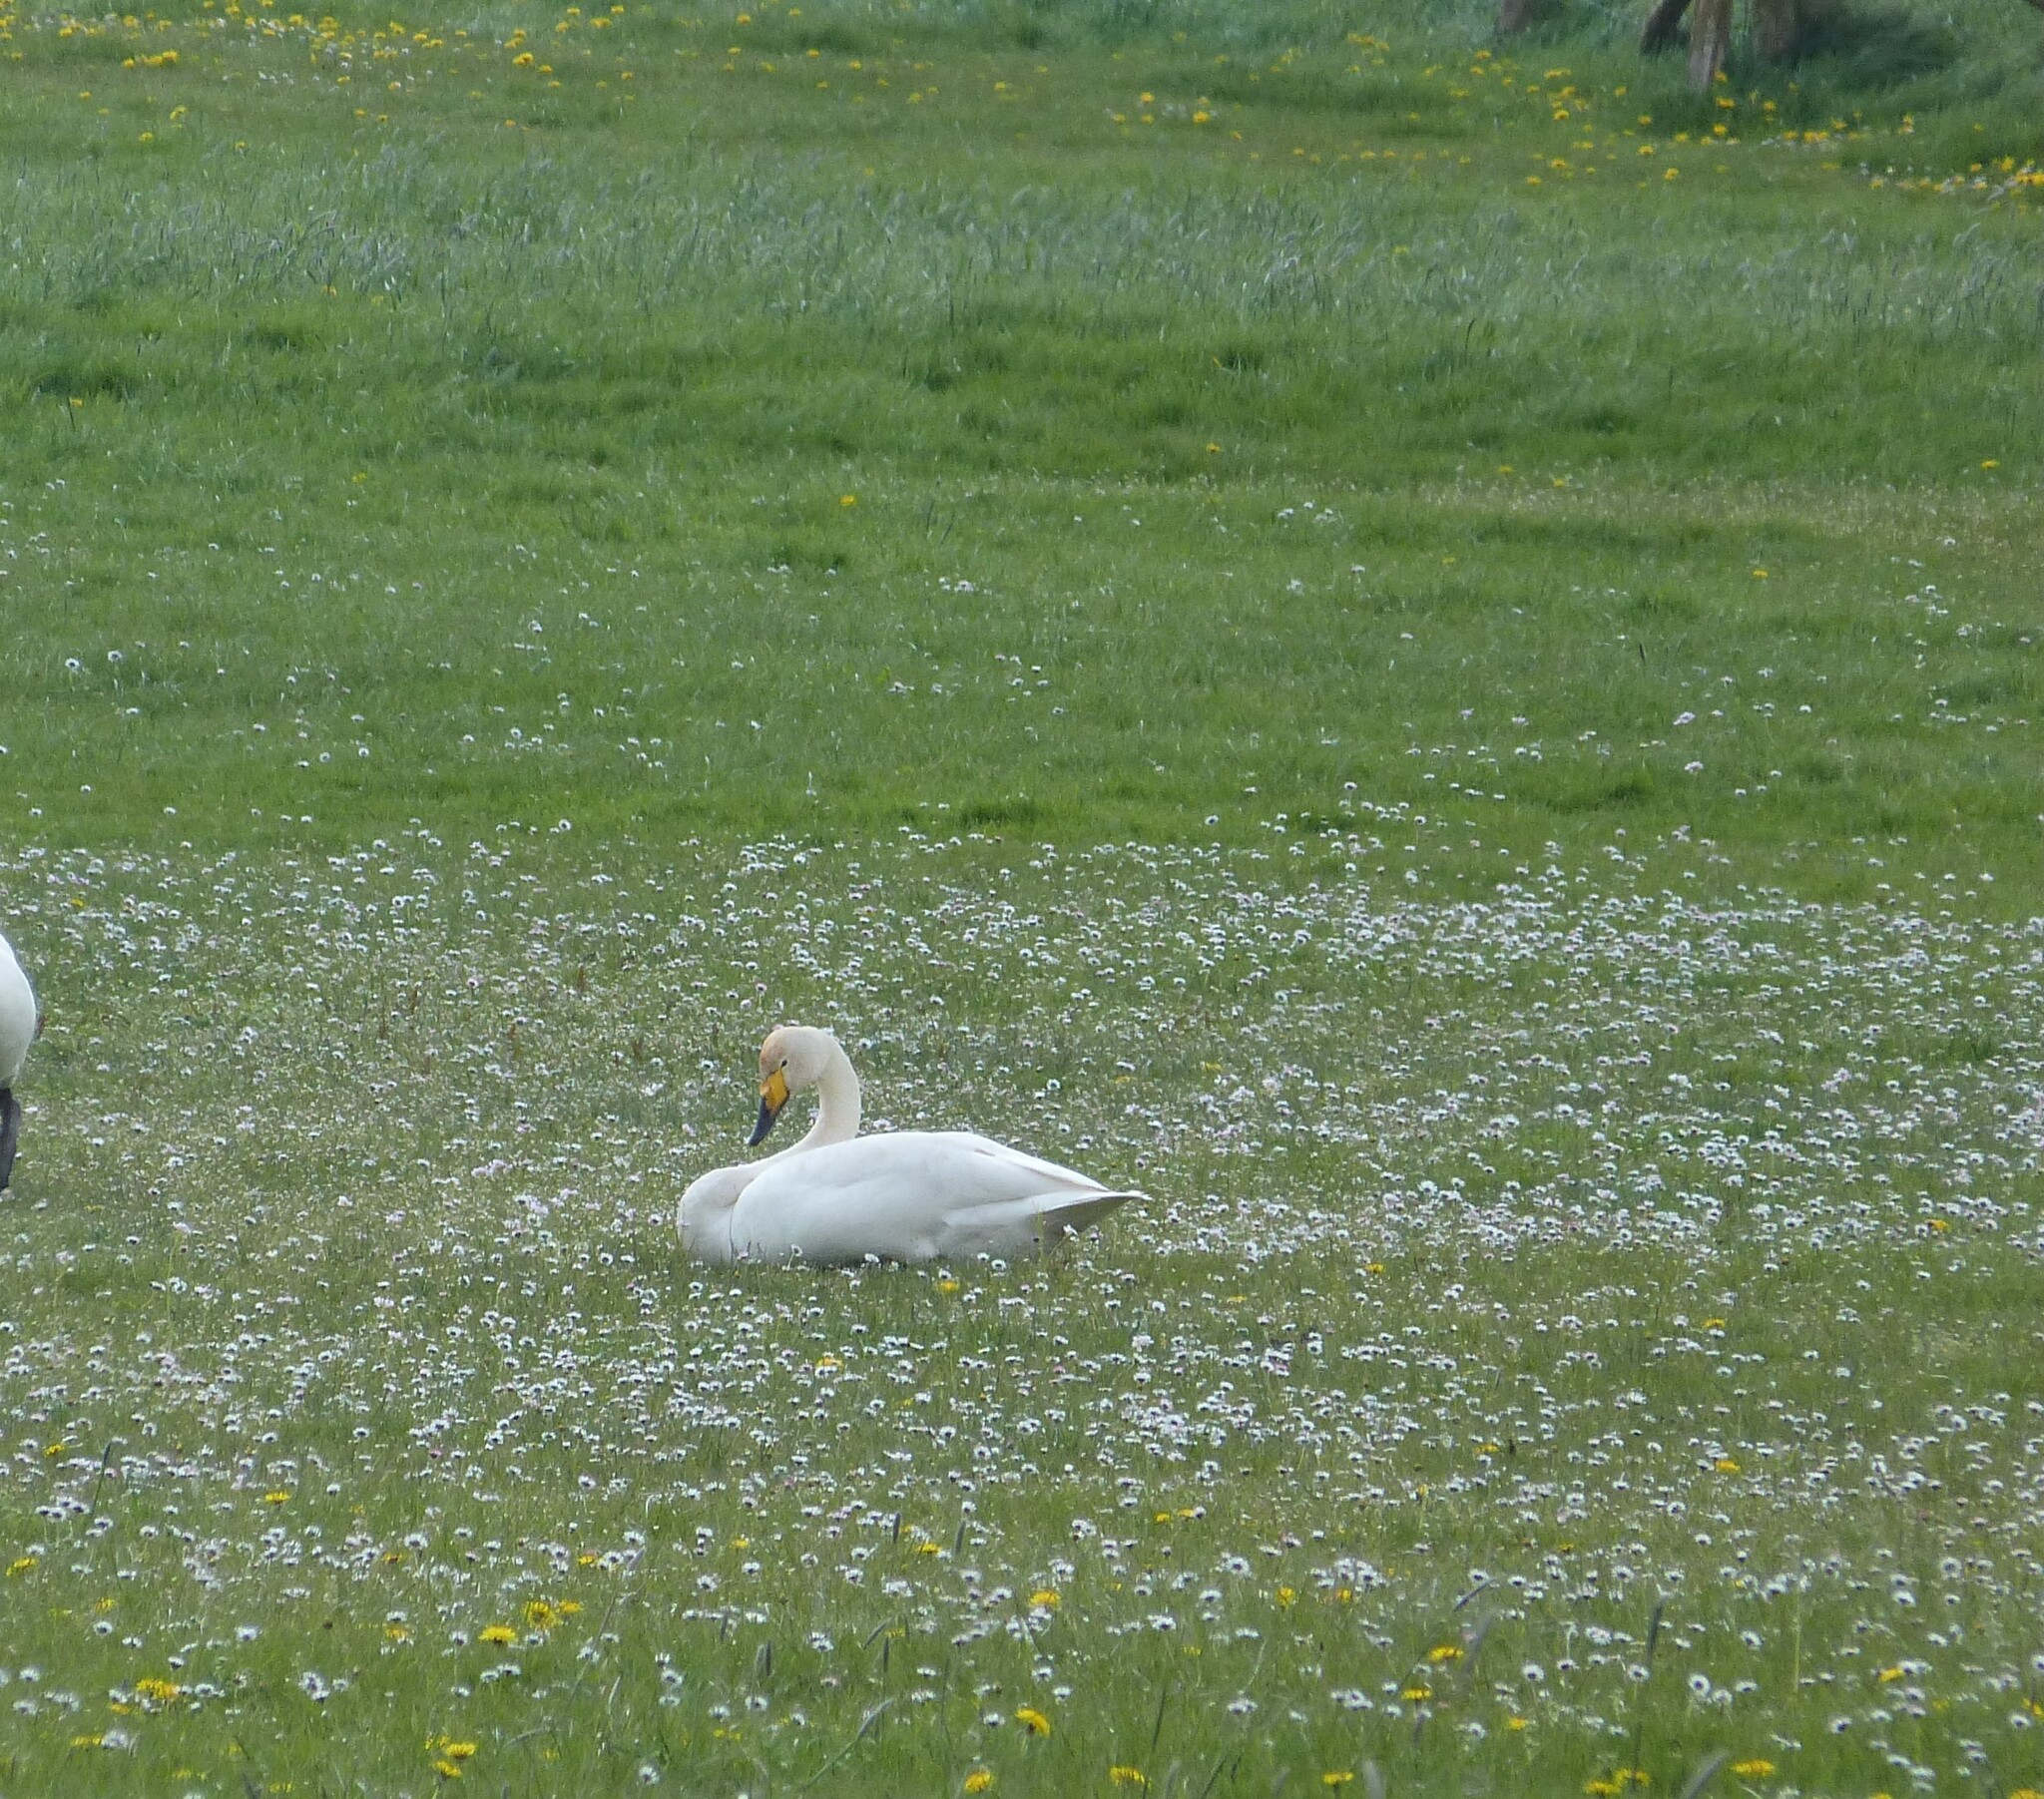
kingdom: Animalia
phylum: Chordata
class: Aves
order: Anseriformes
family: Anatidae
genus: Cygnus
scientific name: Cygnus cygnus
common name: Whooper swan
